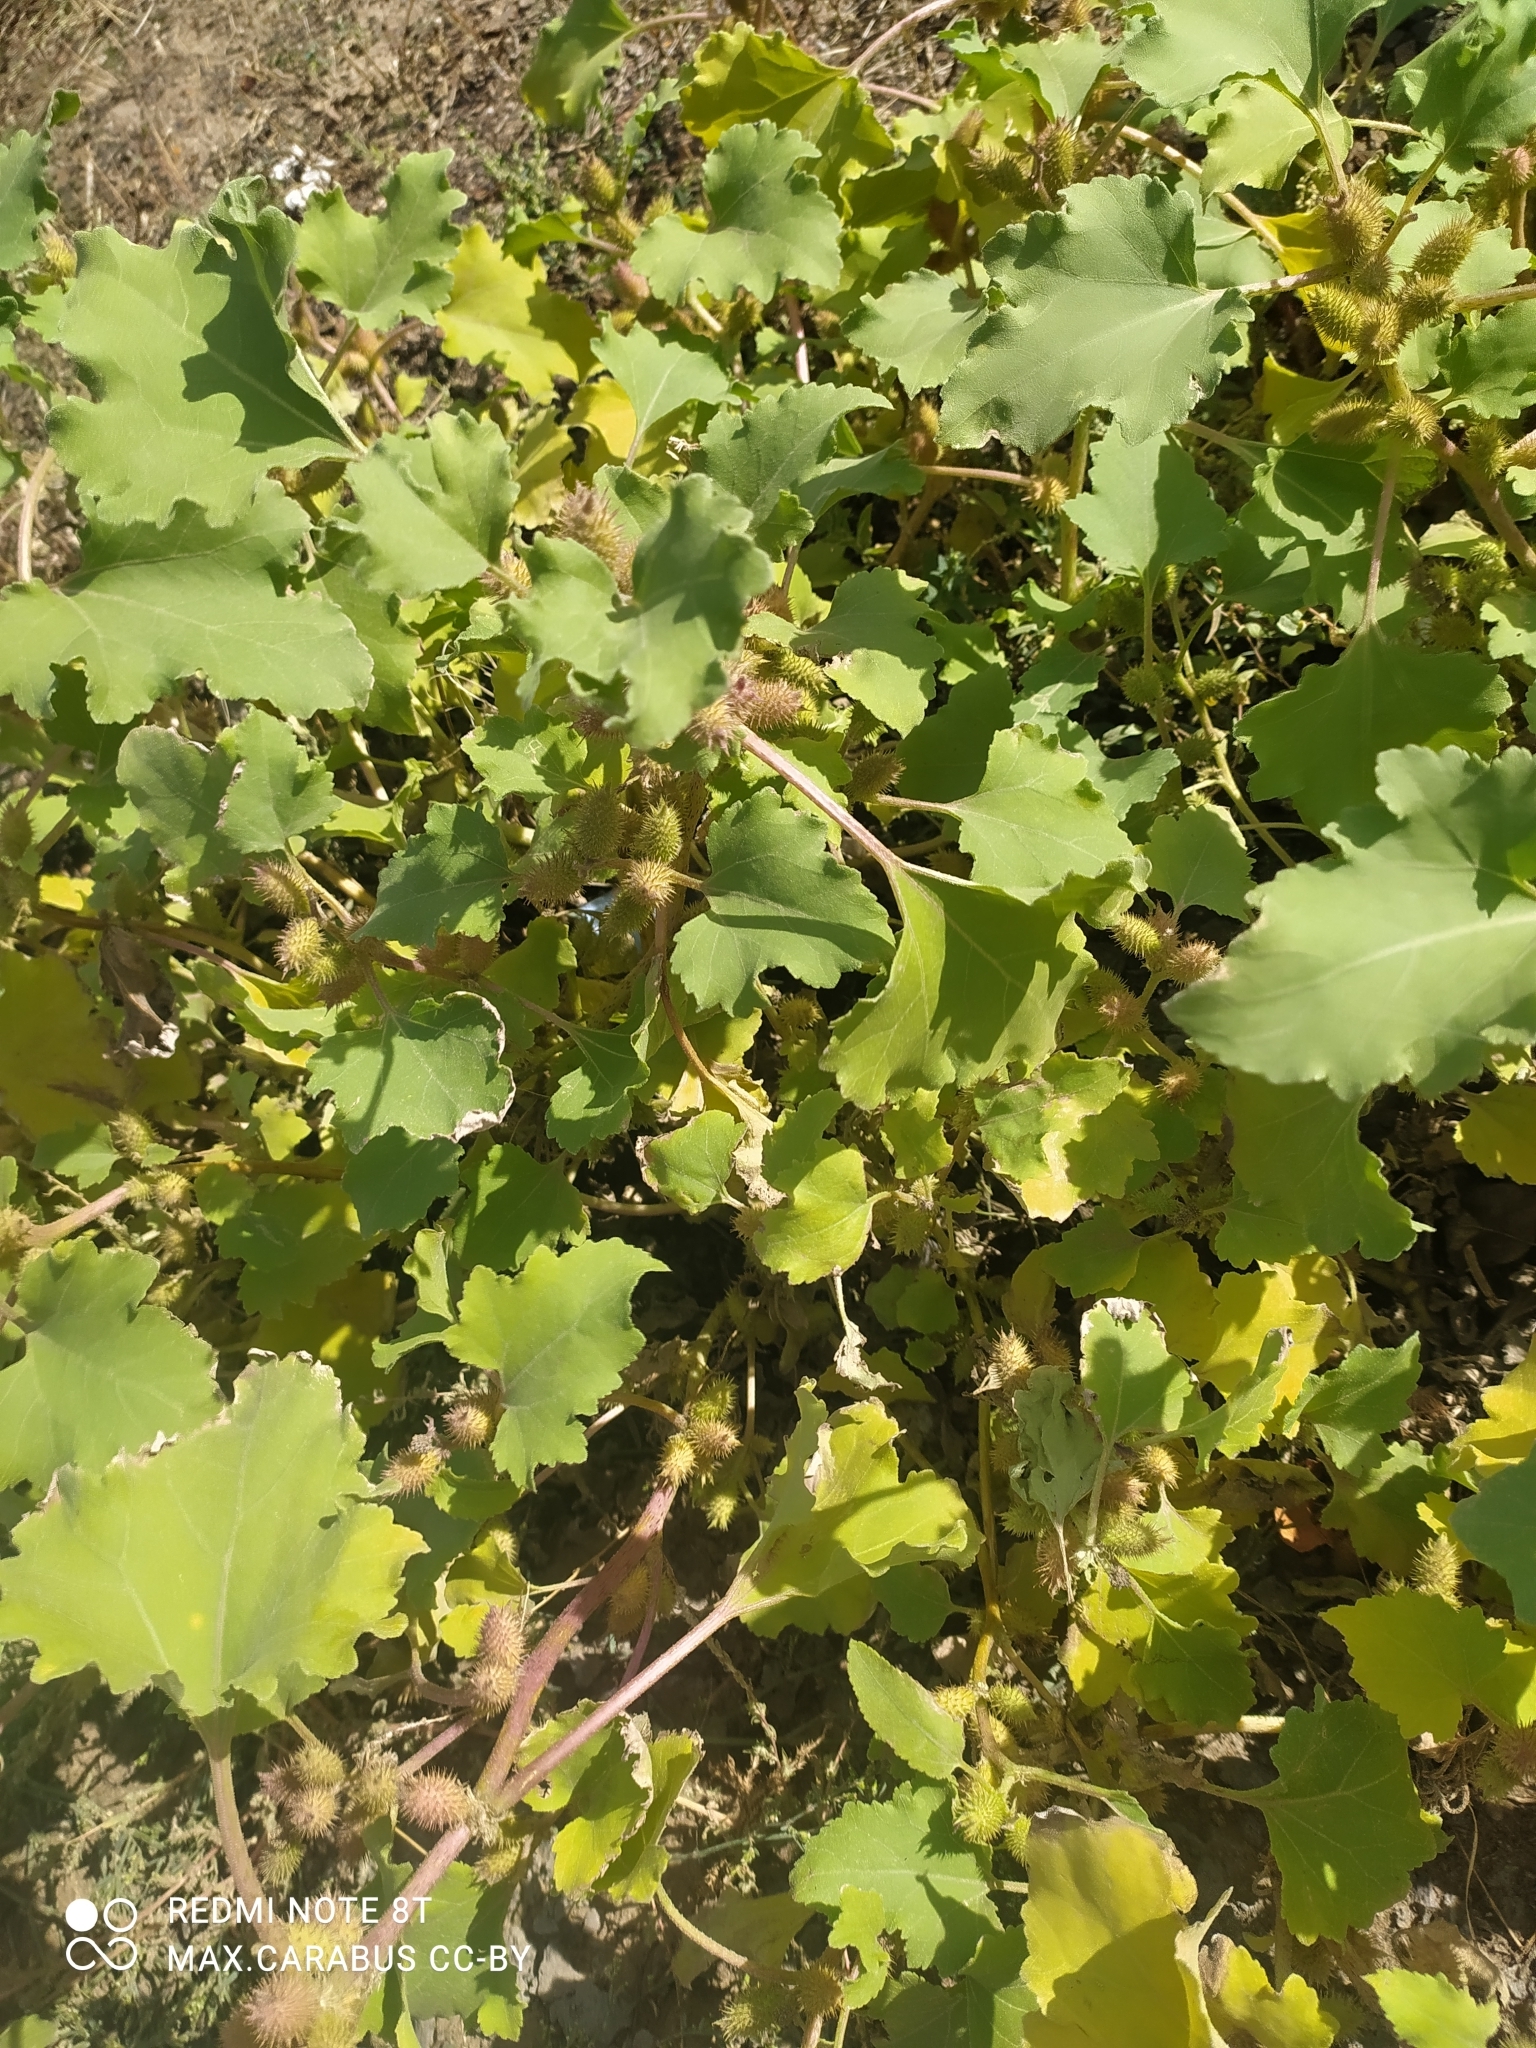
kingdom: Plantae
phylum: Tracheophyta
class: Magnoliopsida
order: Asterales
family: Asteraceae
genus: Xanthium
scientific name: Xanthium orientale
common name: Californian burr
